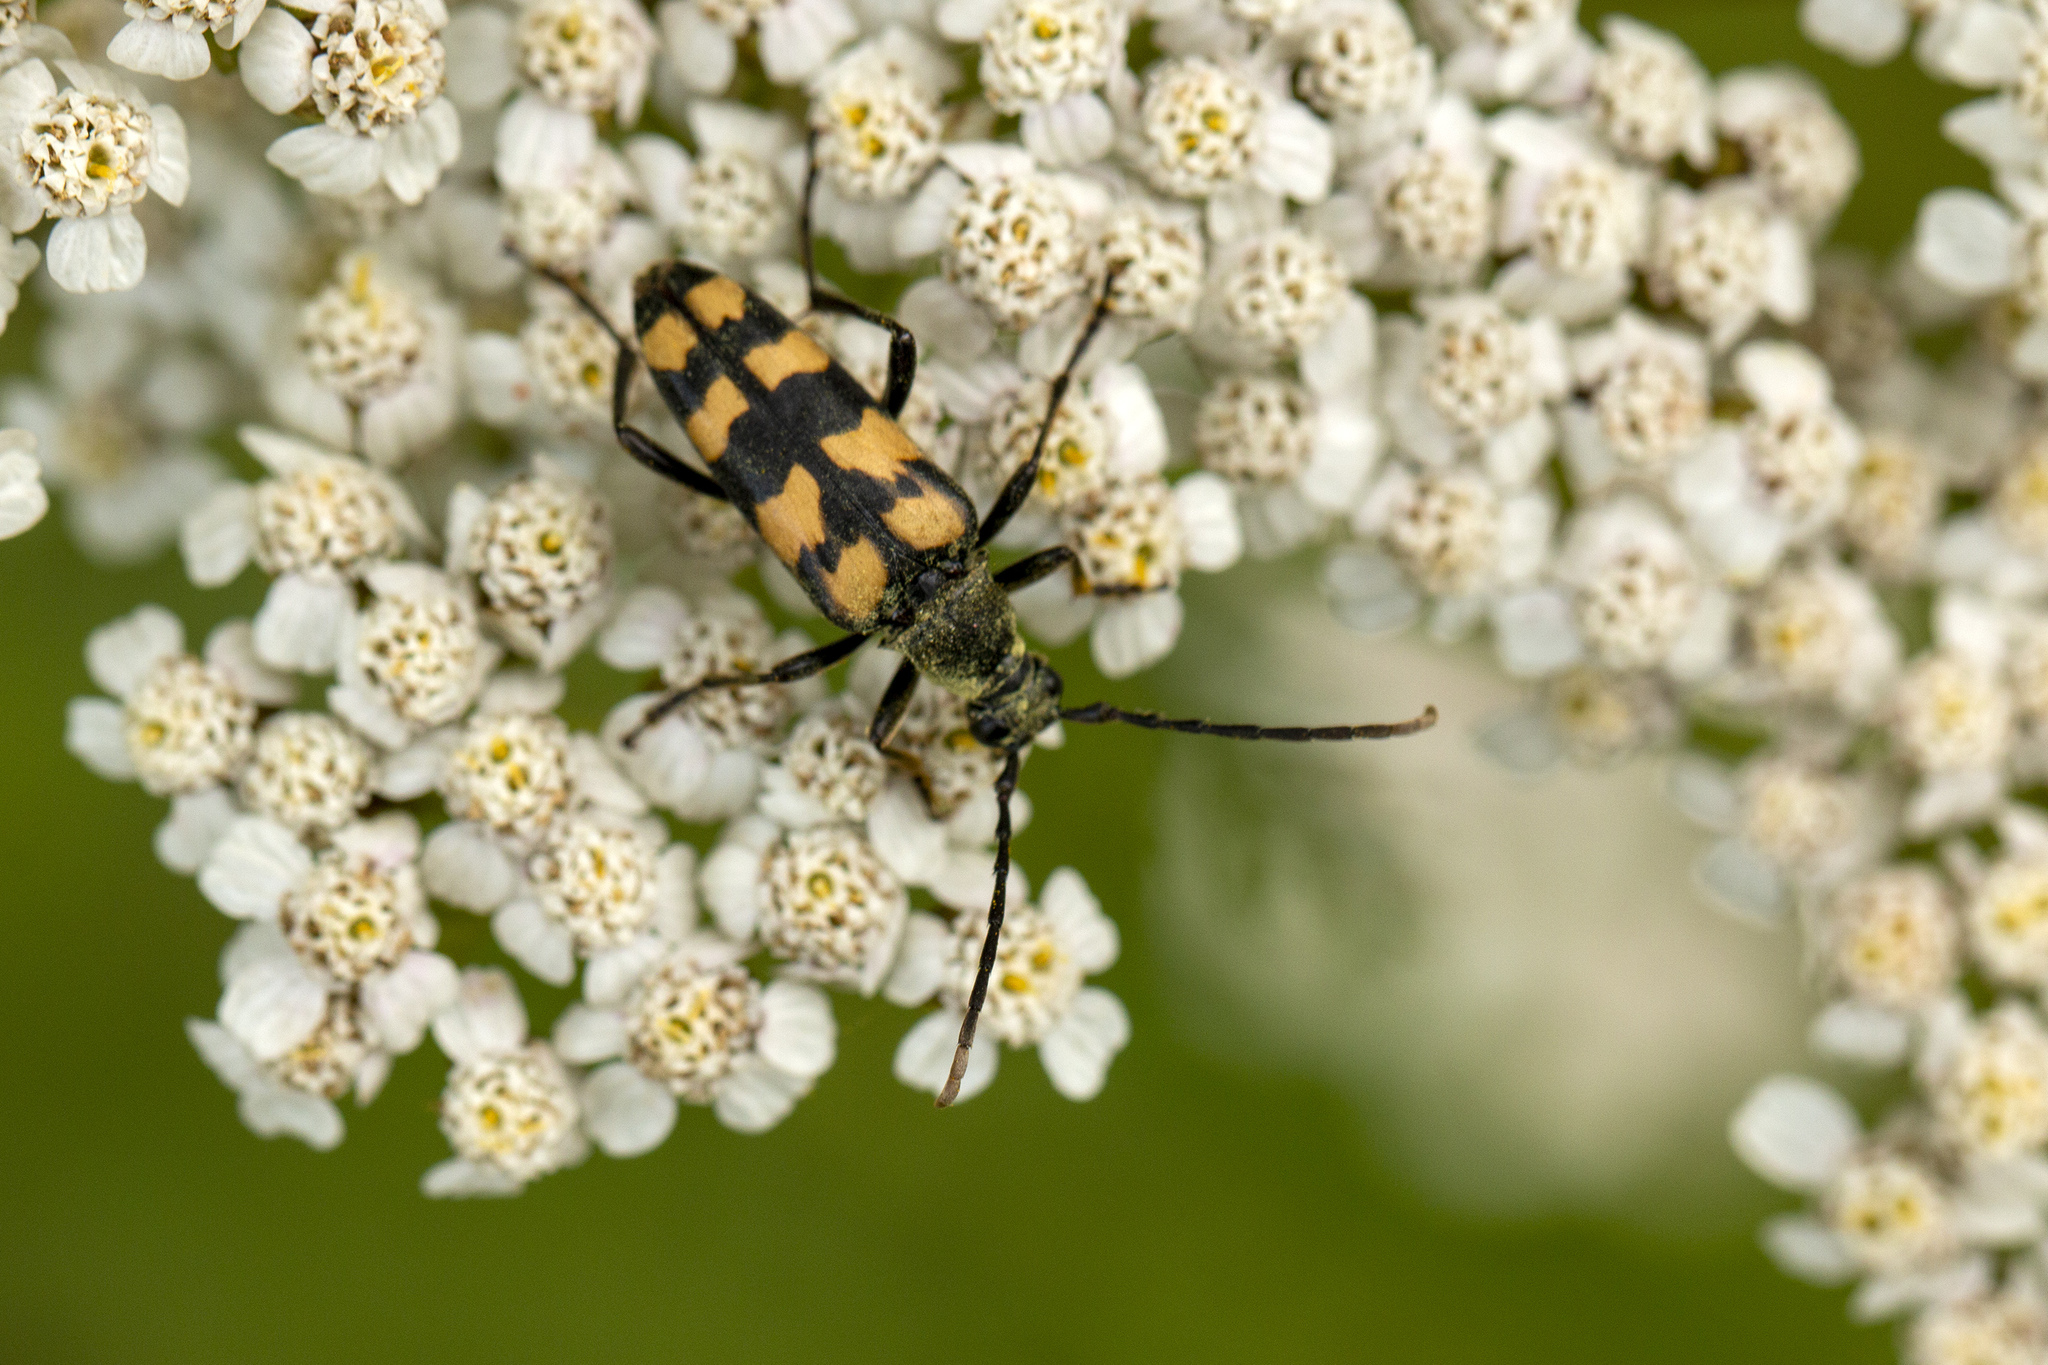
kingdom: Animalia
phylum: Arthropoda
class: Insecta
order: Coleoptera
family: Cerambycidae
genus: Leptura
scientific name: Leptura quadrifasciata
